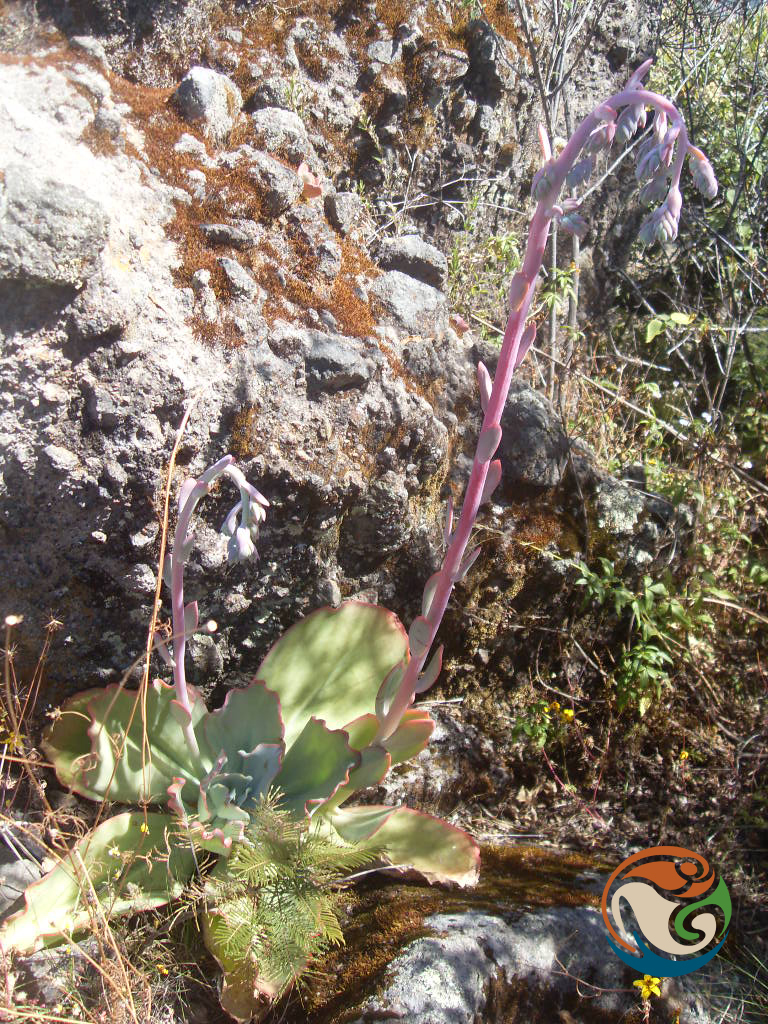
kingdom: Plantae
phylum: Tracheophyta
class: Magnoliopsida
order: Saxifragales
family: Crassulaceae
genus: Echeveria
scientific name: Echeveria gigantea
